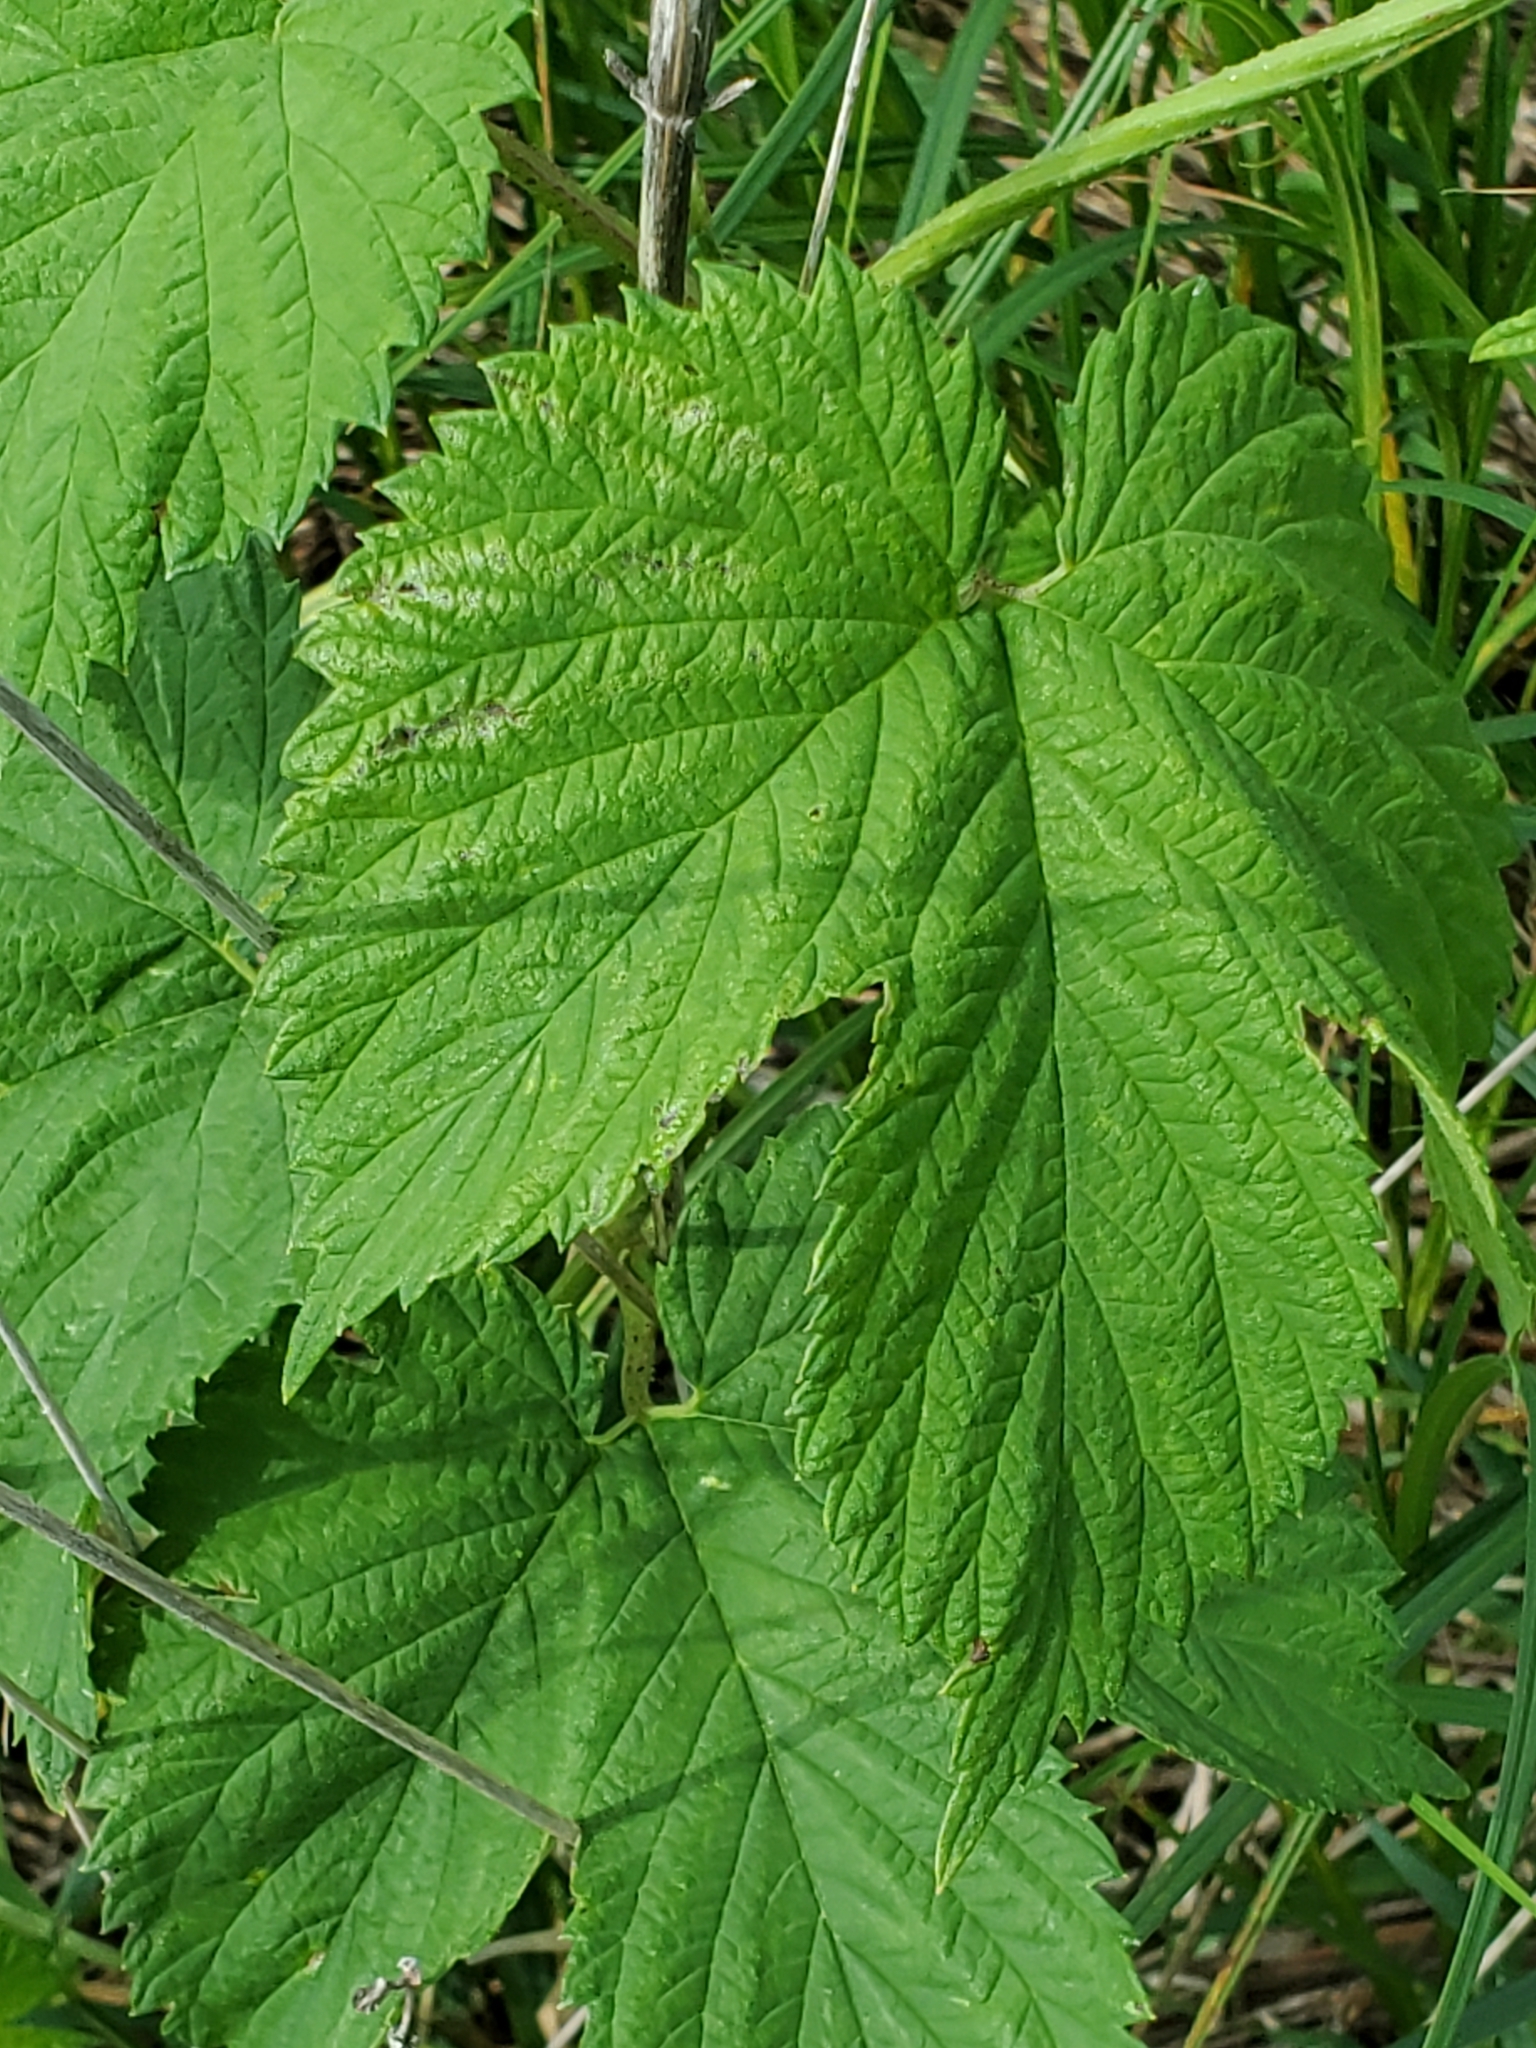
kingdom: Plantae
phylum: Tracheophyta
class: Magnoliopsida
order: Rosales
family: Cannabaceae
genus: Humulus
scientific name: Humulus lupulus
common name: Hop
